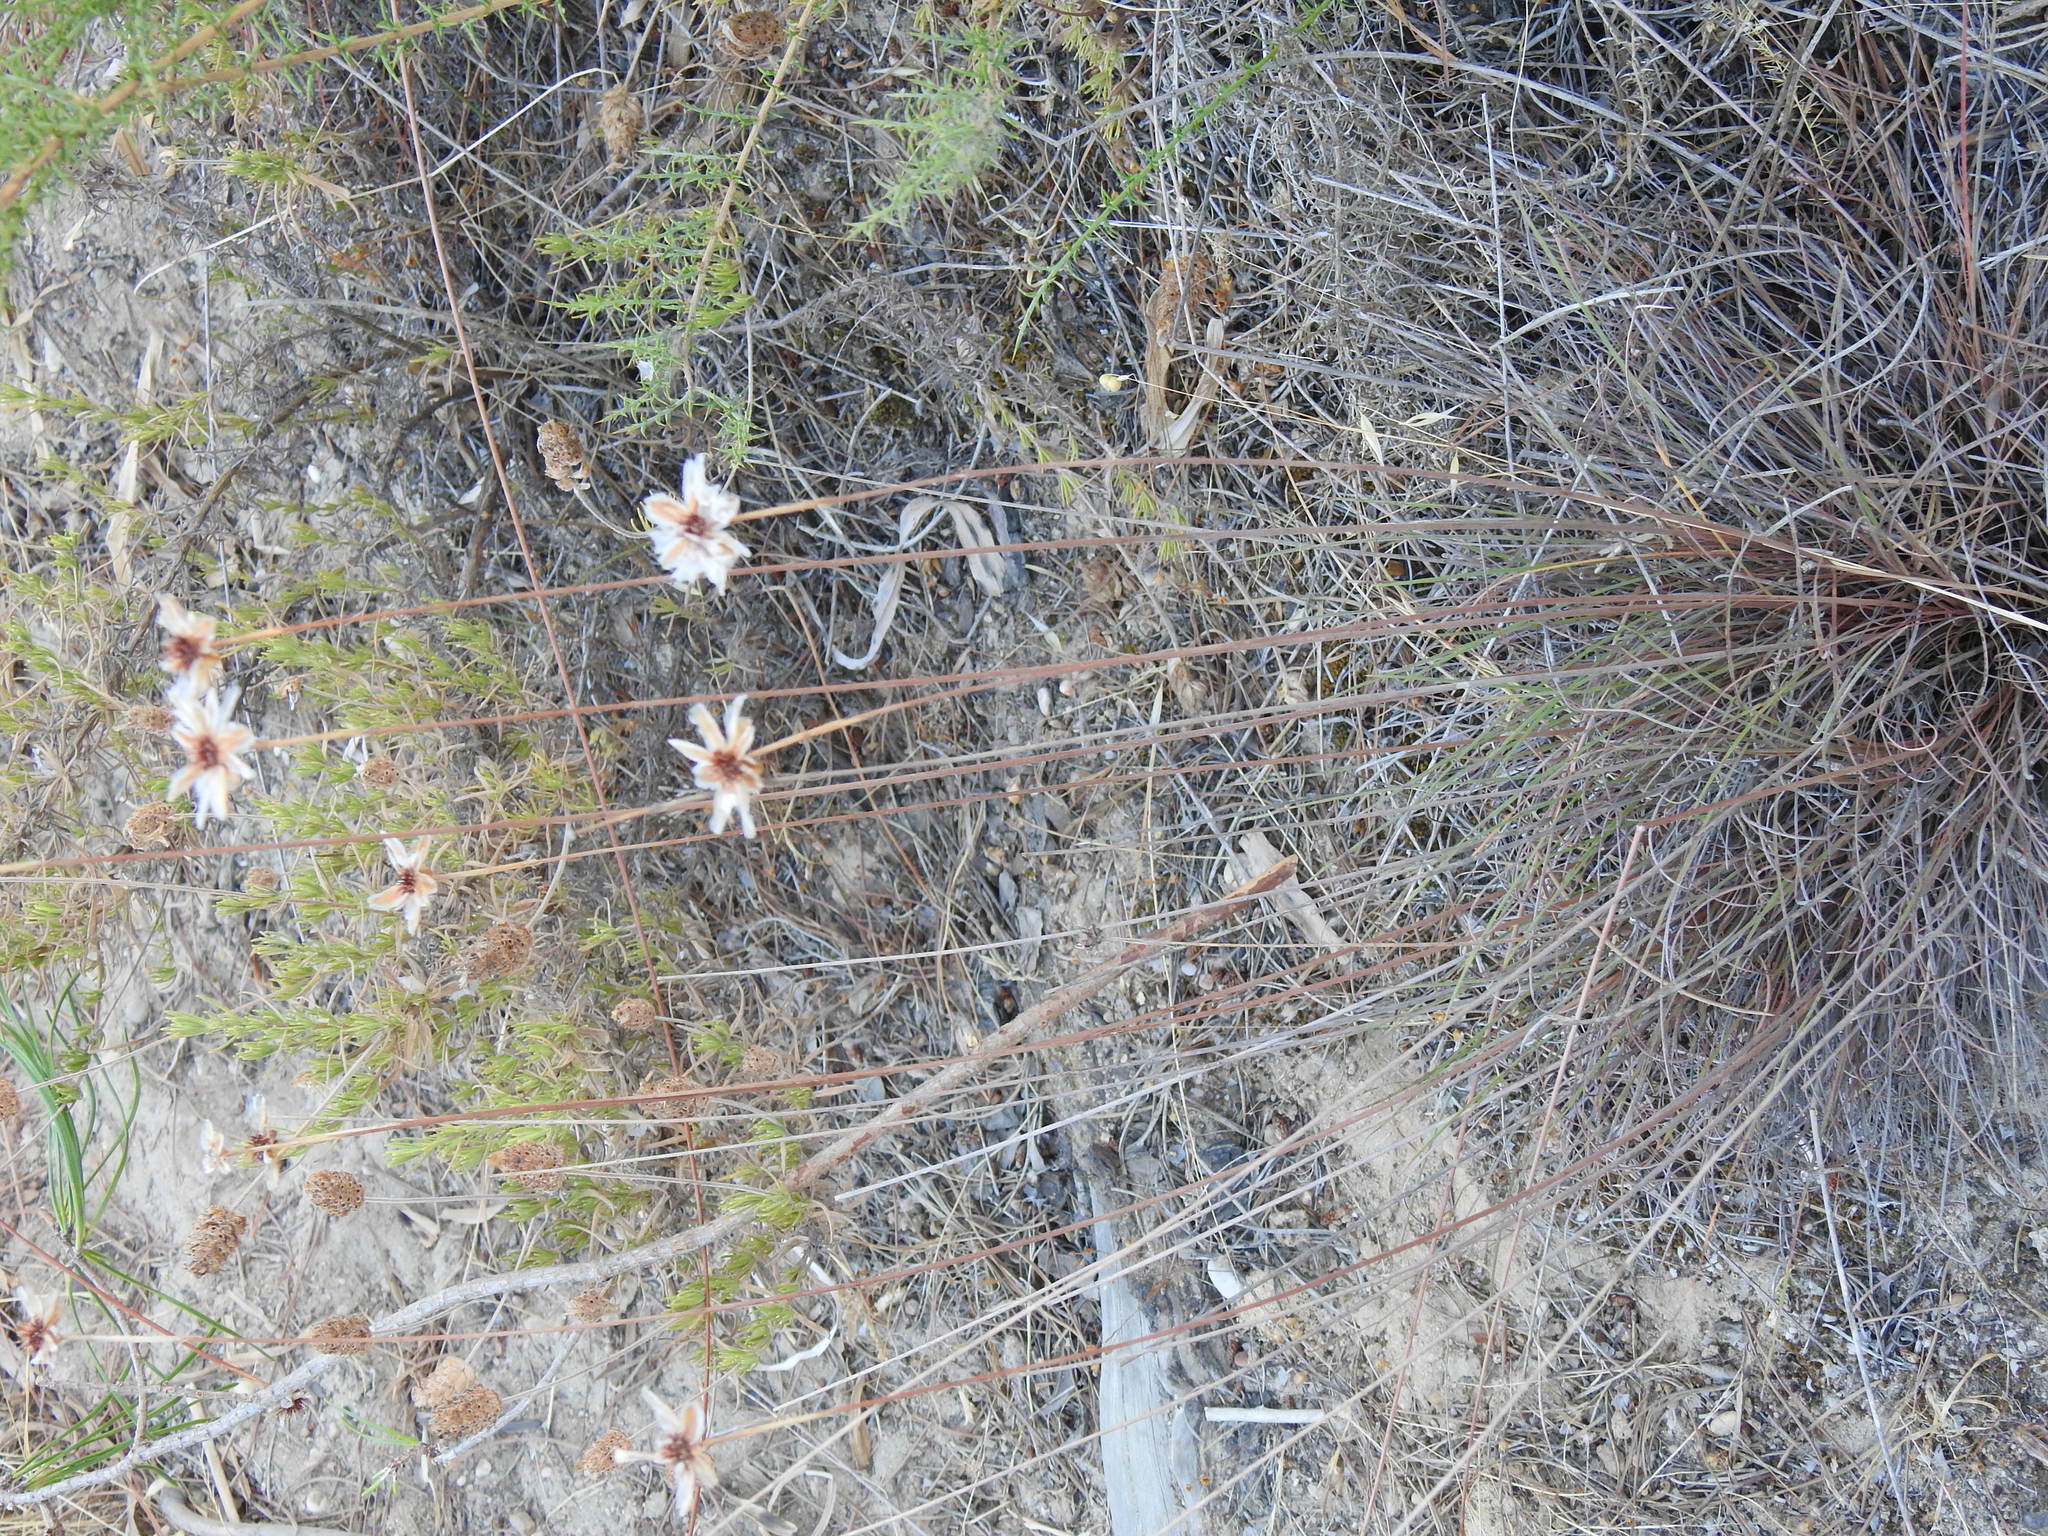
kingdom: Plantae
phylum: Tracheophyta
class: Magnoliopsida
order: Caryophyllales
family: Plumbaginaceae
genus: Armeria
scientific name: Armeria macrophylla
